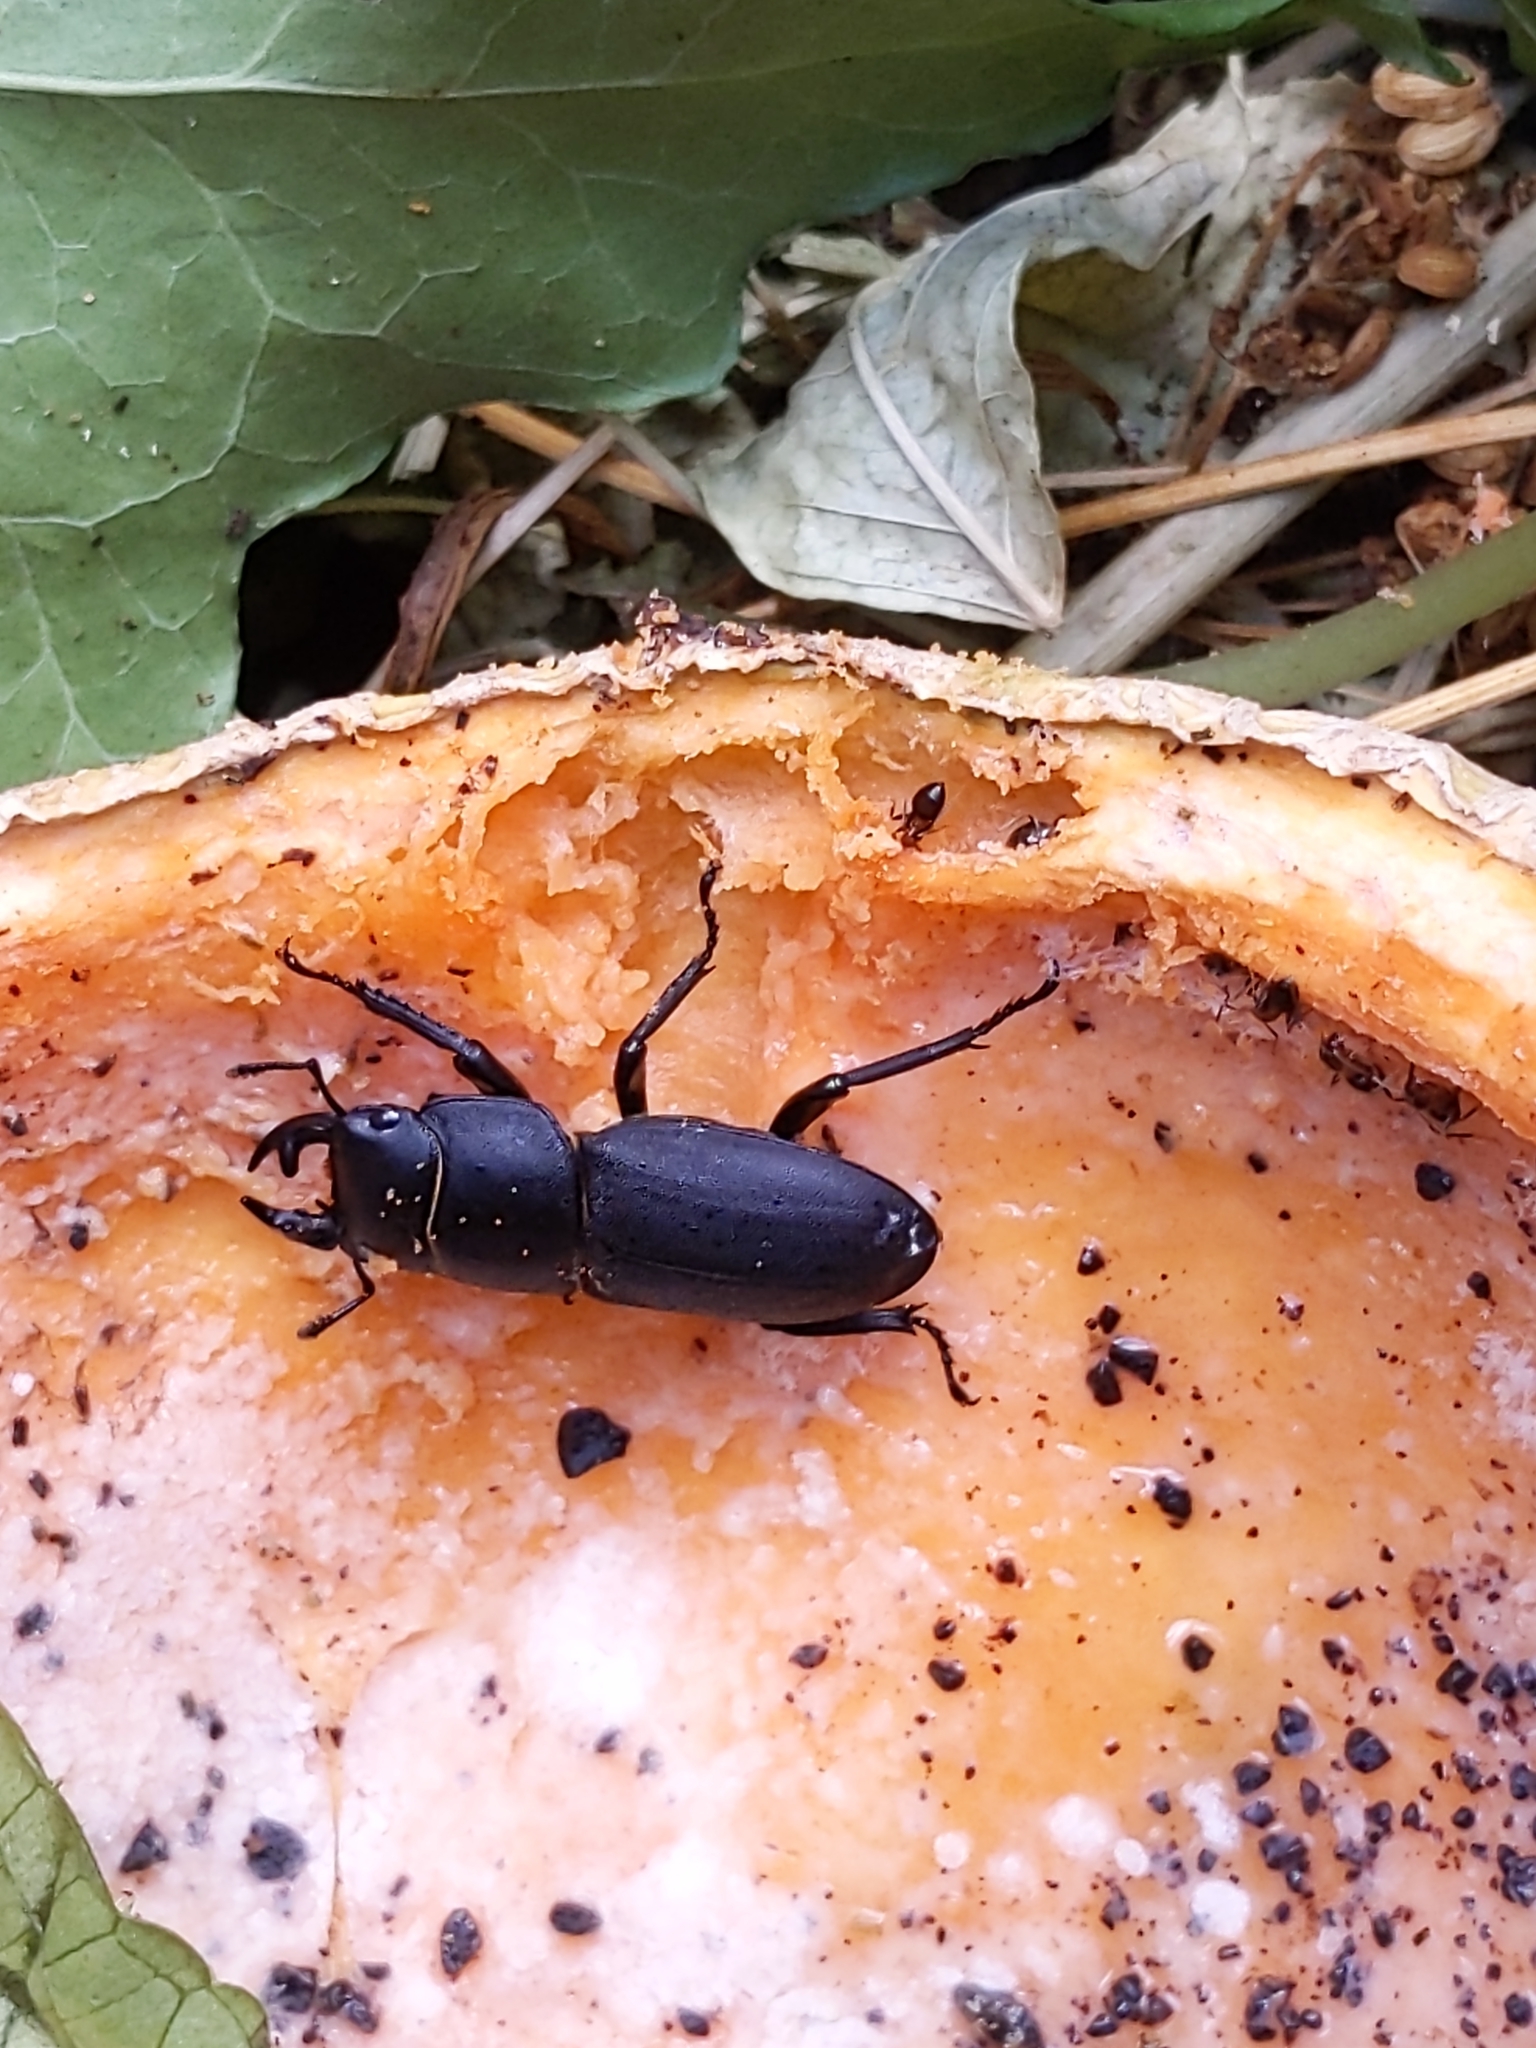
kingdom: Animalia
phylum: Arthropoda
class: Insecta
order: Coleoptera
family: Lucanidae
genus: Dorcus
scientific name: Dorcus parallelipipedus
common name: Lesser stag beetle
